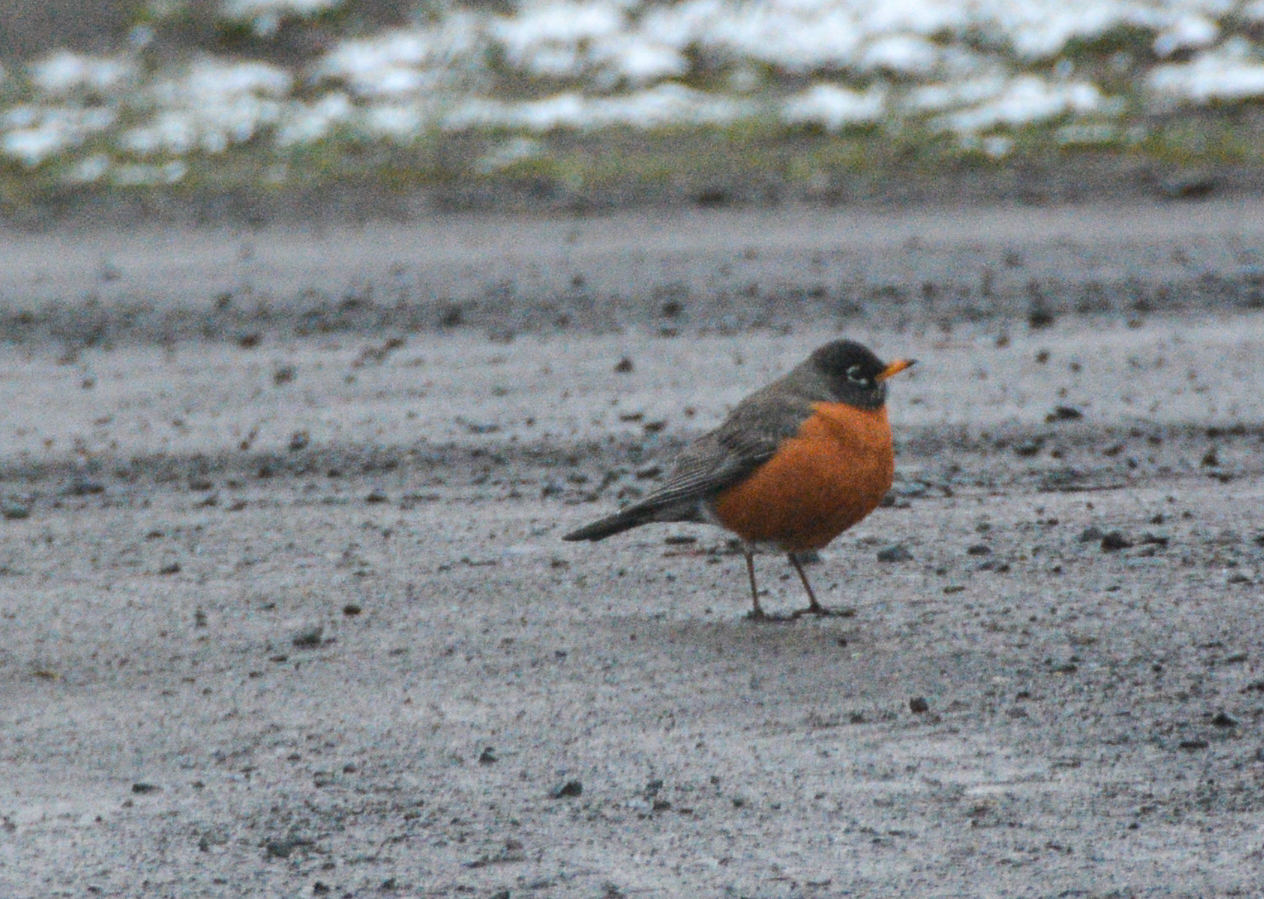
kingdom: Animalia
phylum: Chordata
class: Aves
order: Passeriformes
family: Turdidae
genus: Turdus
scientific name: Turdus migratorius
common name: American robin
